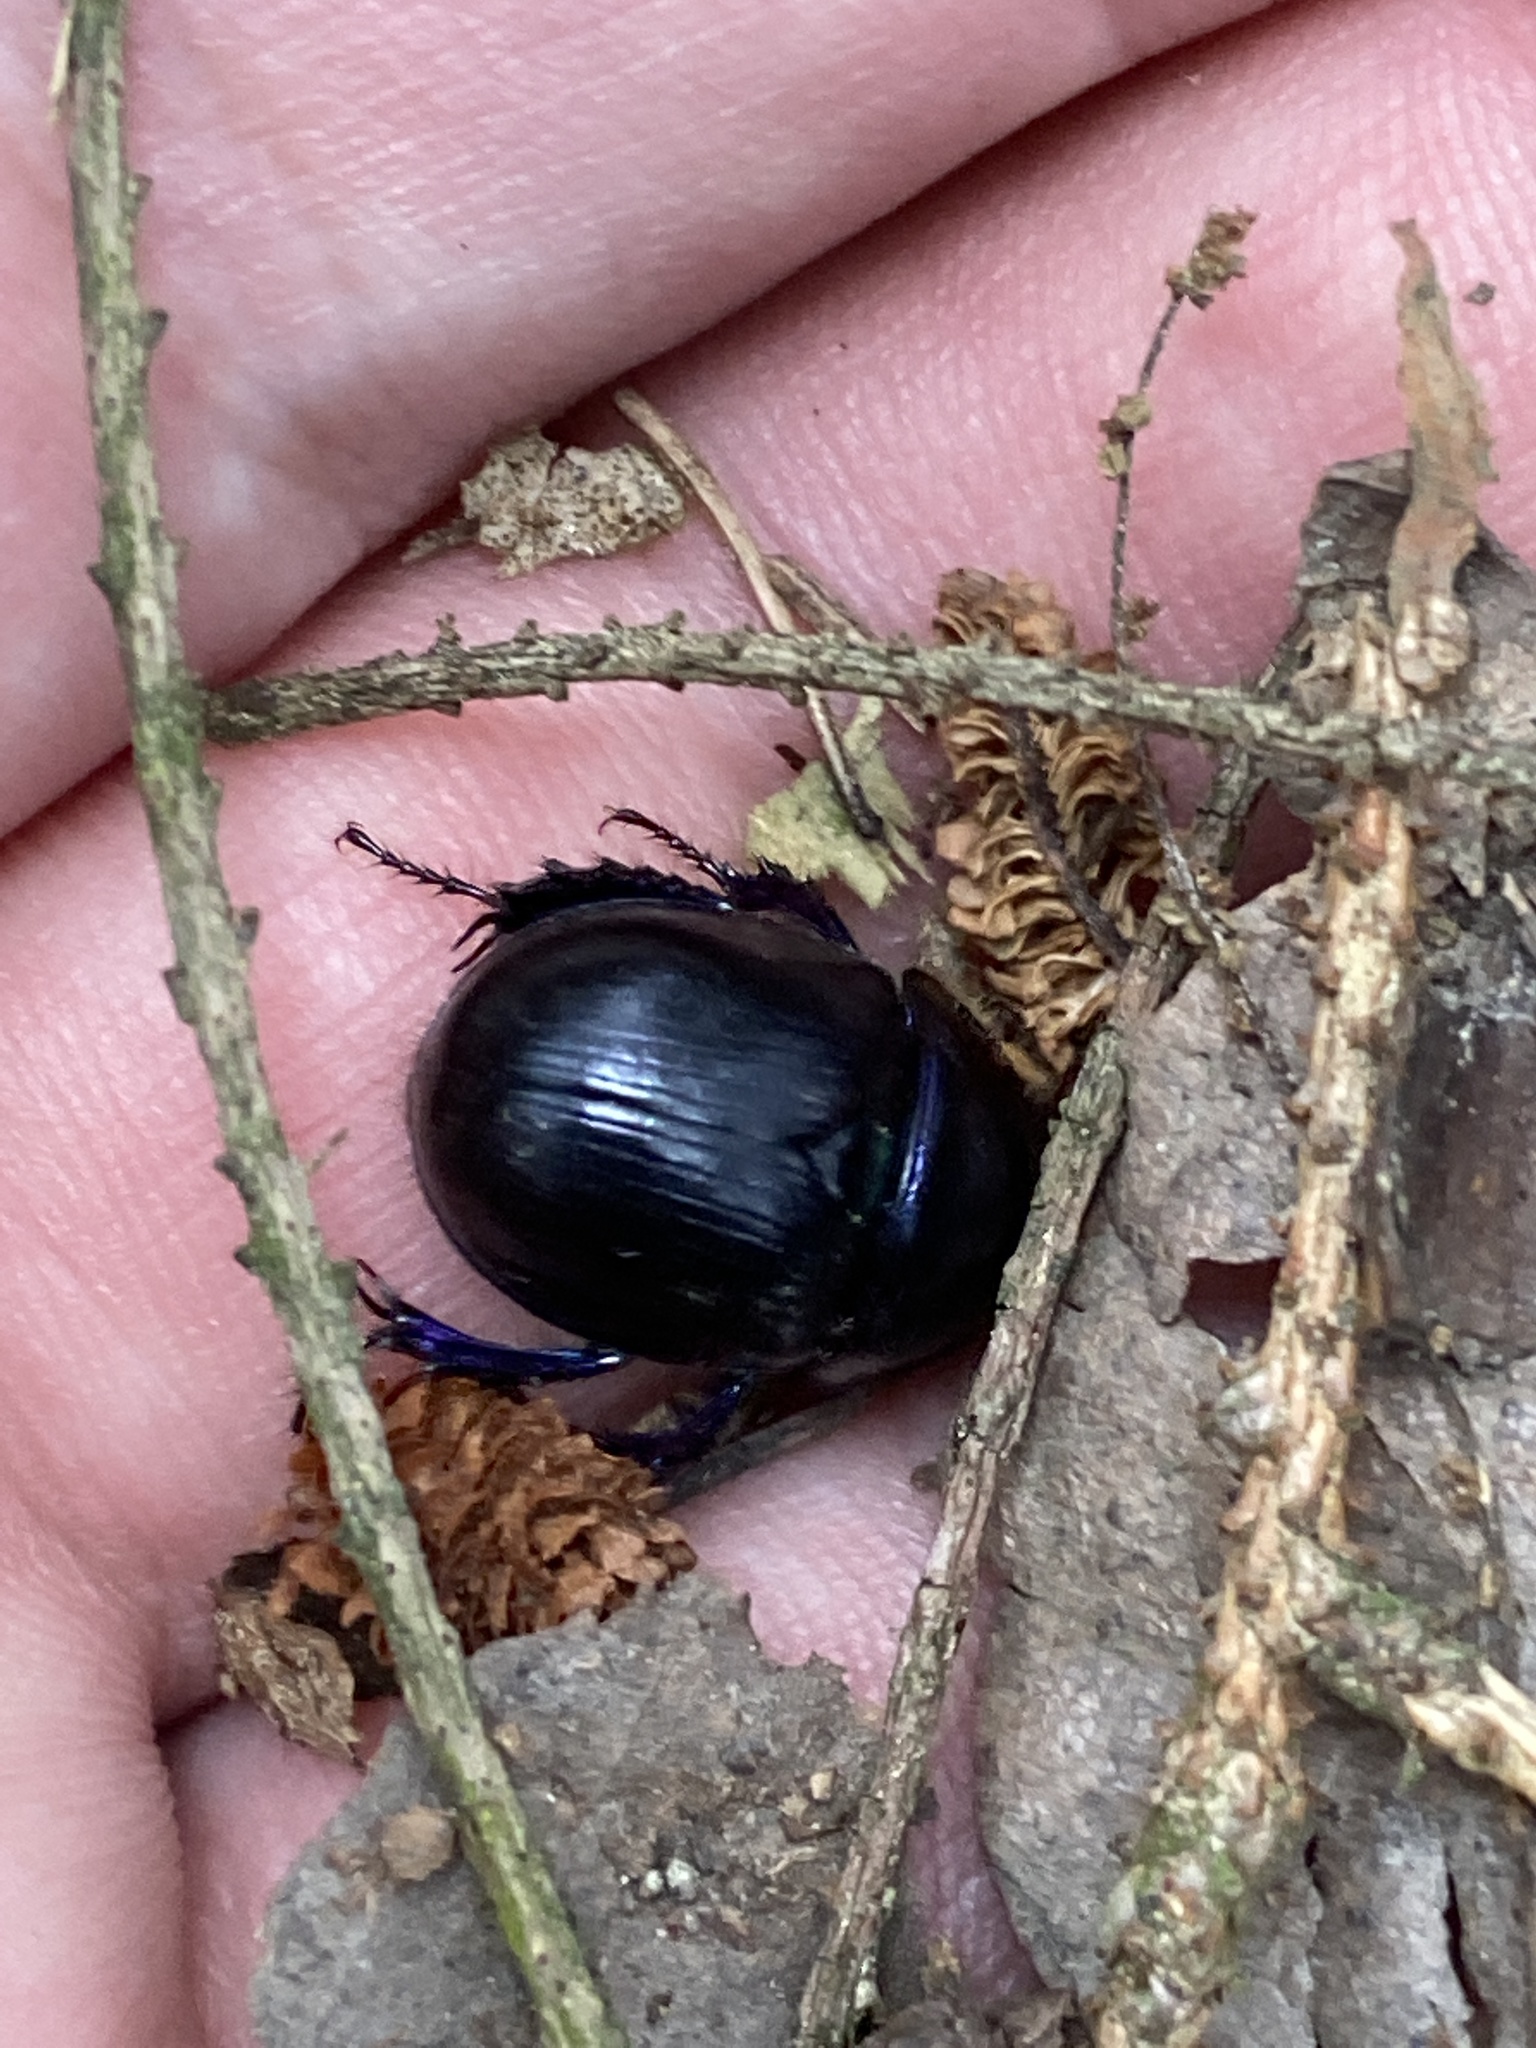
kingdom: Animalia
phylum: Arthropoda
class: Insecta
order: Coleoptera
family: Geotrupidae
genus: Anoplotrupes
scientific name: Anoplotrupes stercorosus
